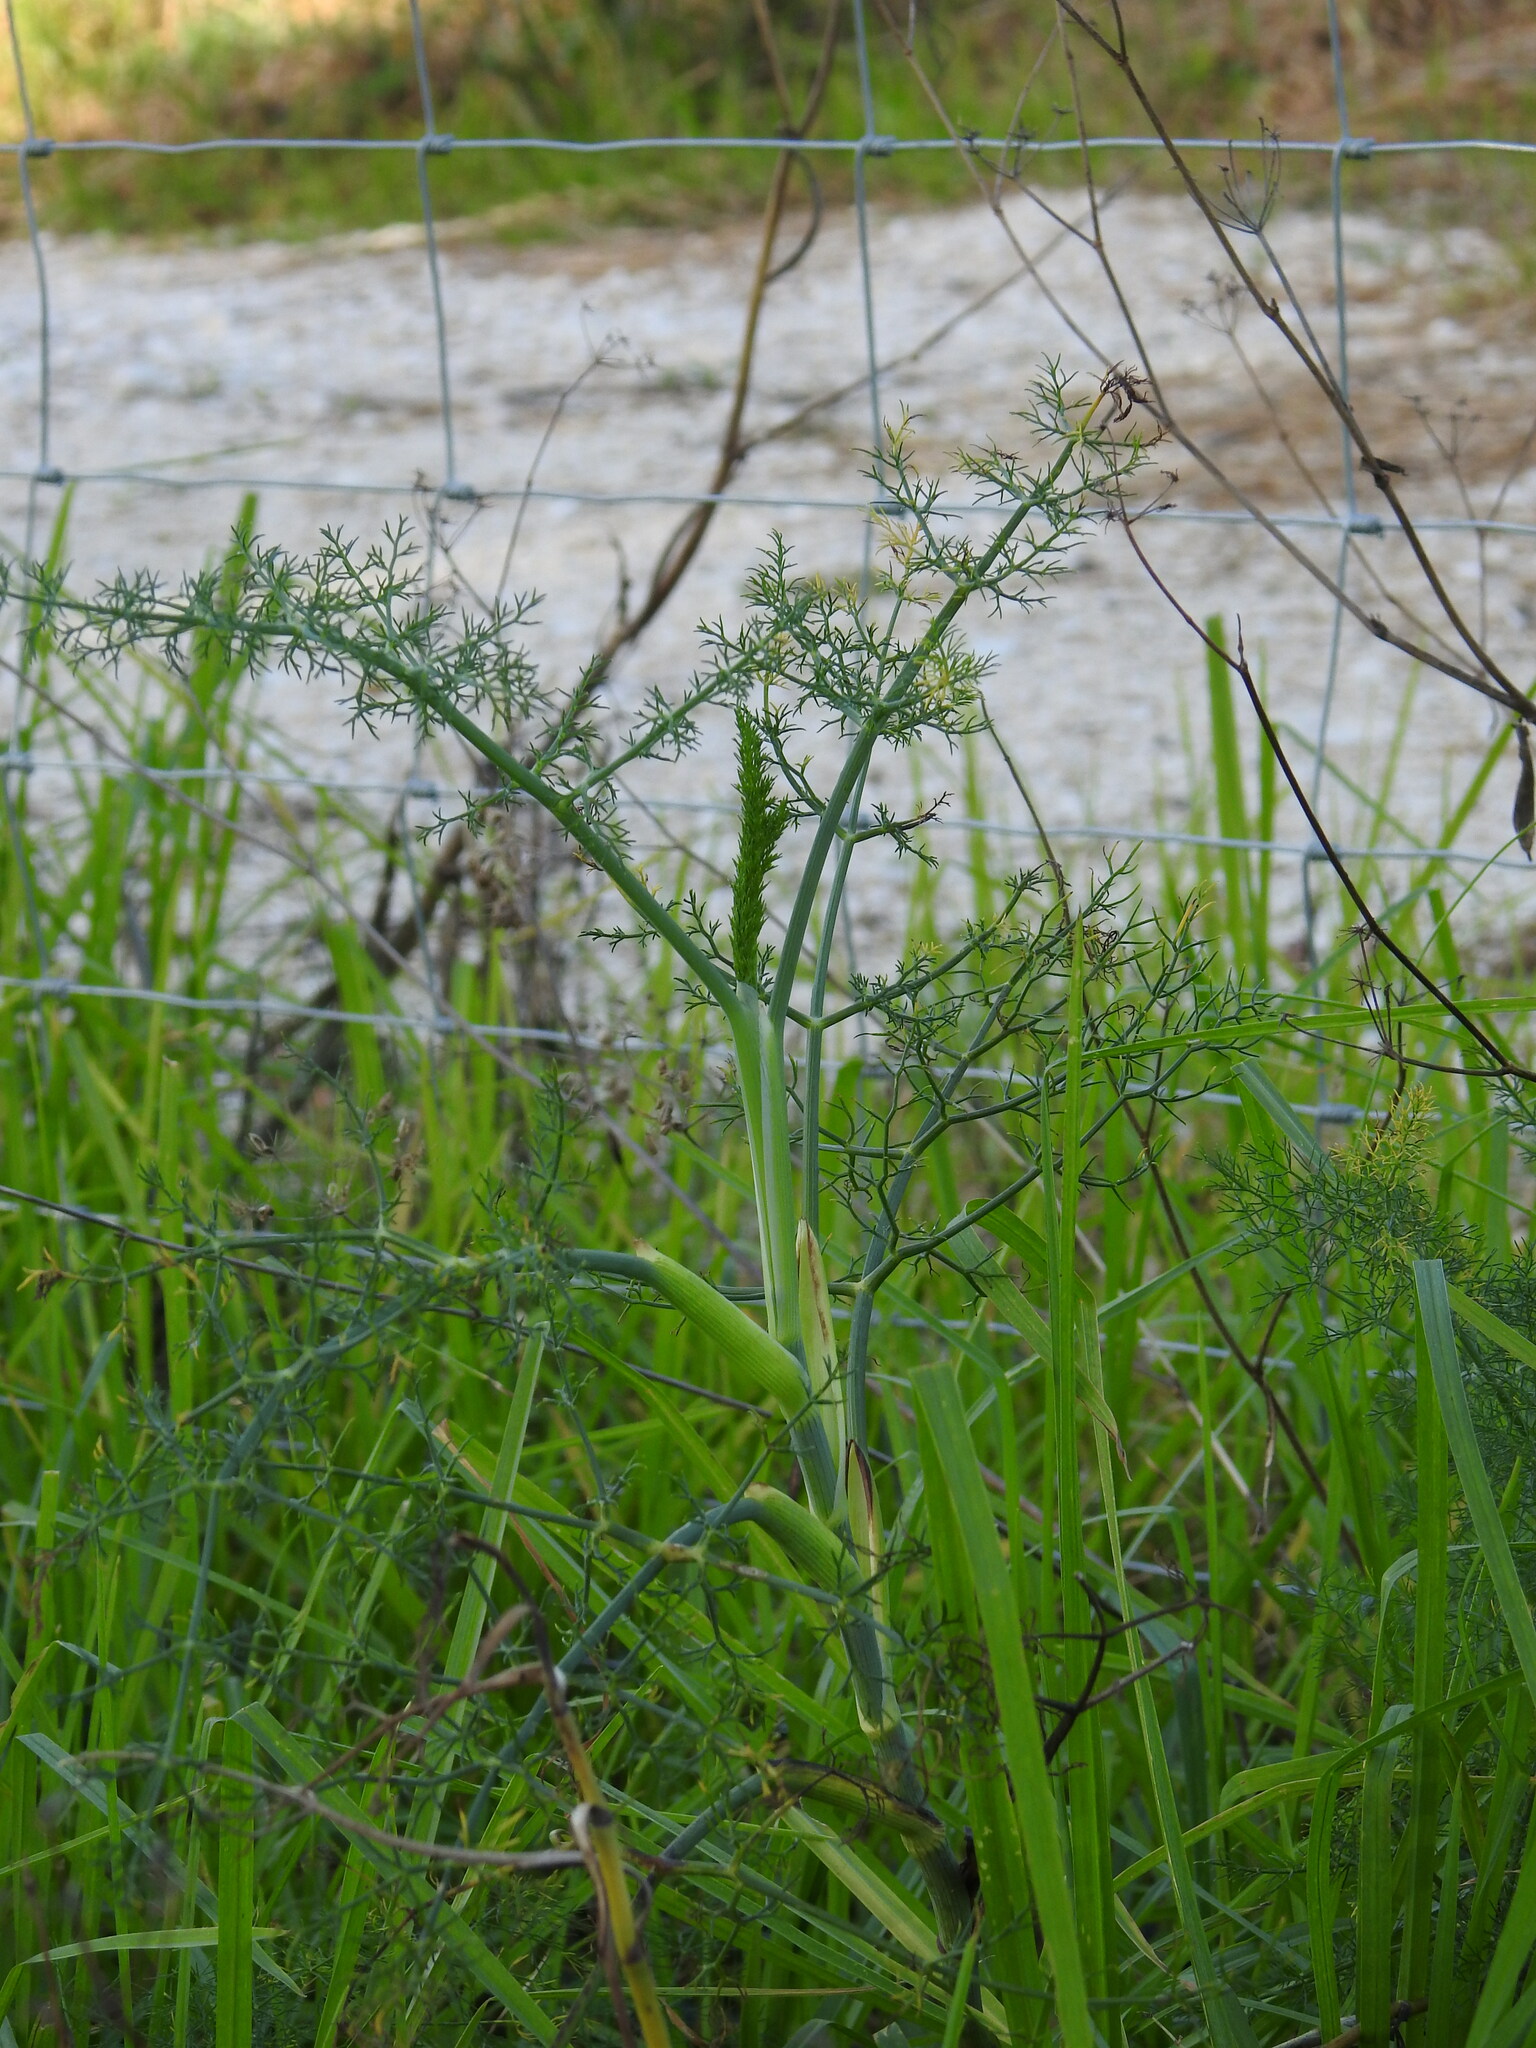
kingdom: Plantae
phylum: Tracheophyta
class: Magnoliopsida
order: Apiales
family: Apiaceae
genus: Foeniculum
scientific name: Foeniculum vulgare
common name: Fennel
